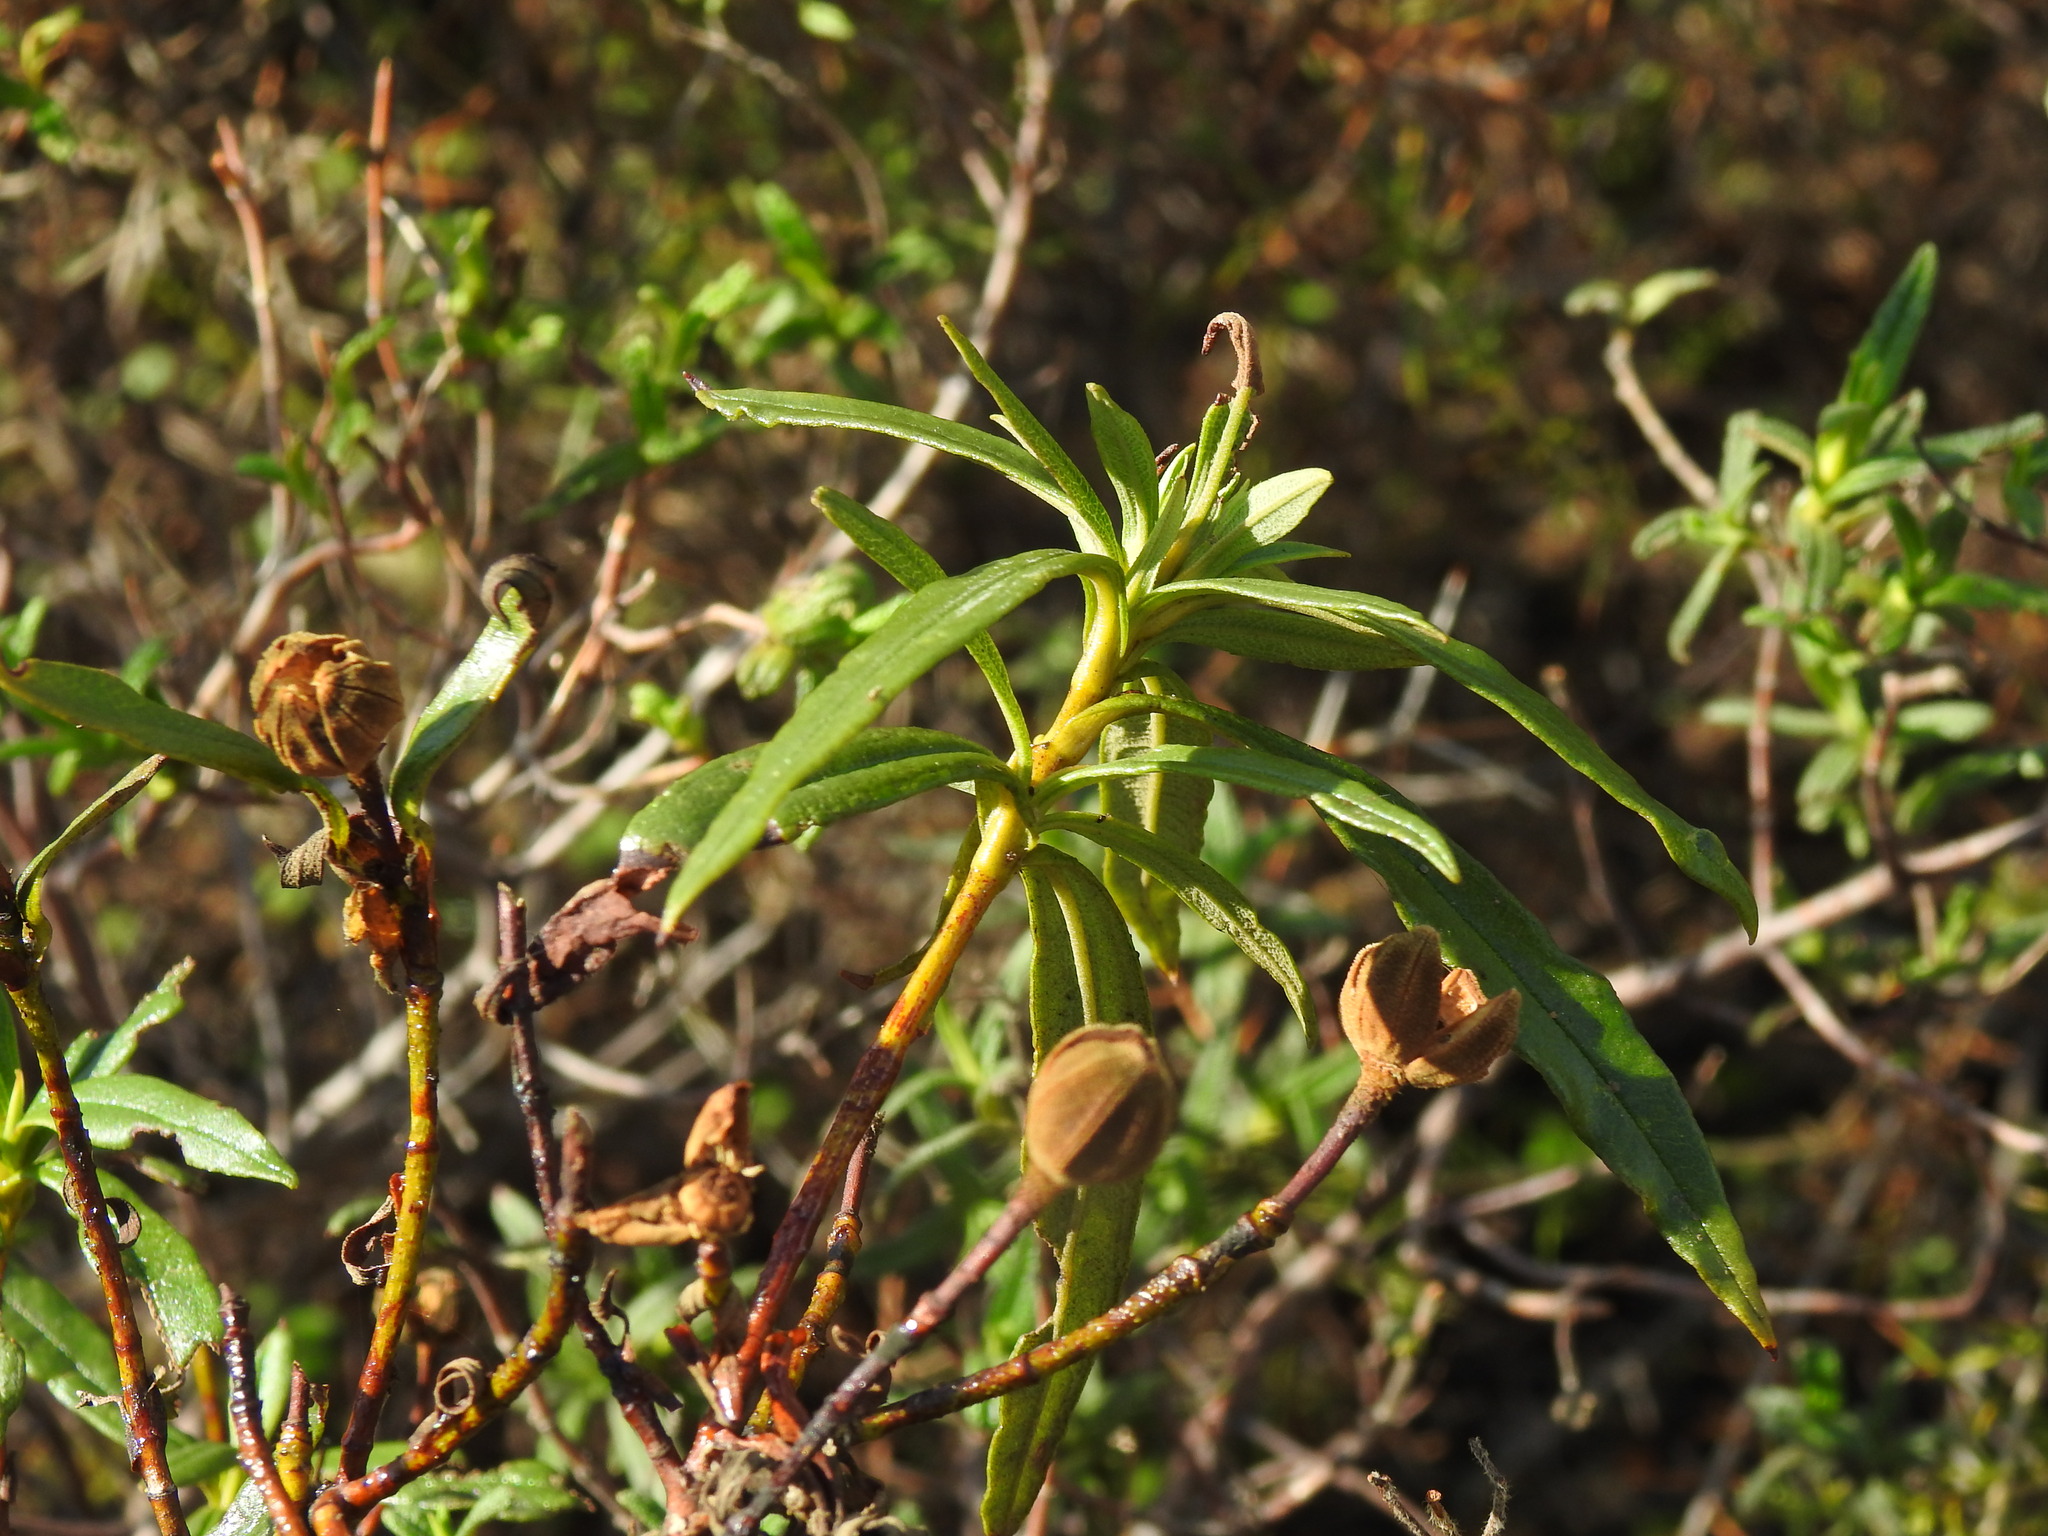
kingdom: Plantae
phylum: Tracheophyta
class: Magnoliopsida
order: Malvales
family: Cistaceae
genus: Cistus
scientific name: Cistus ladanifer
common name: Common gum cistus
